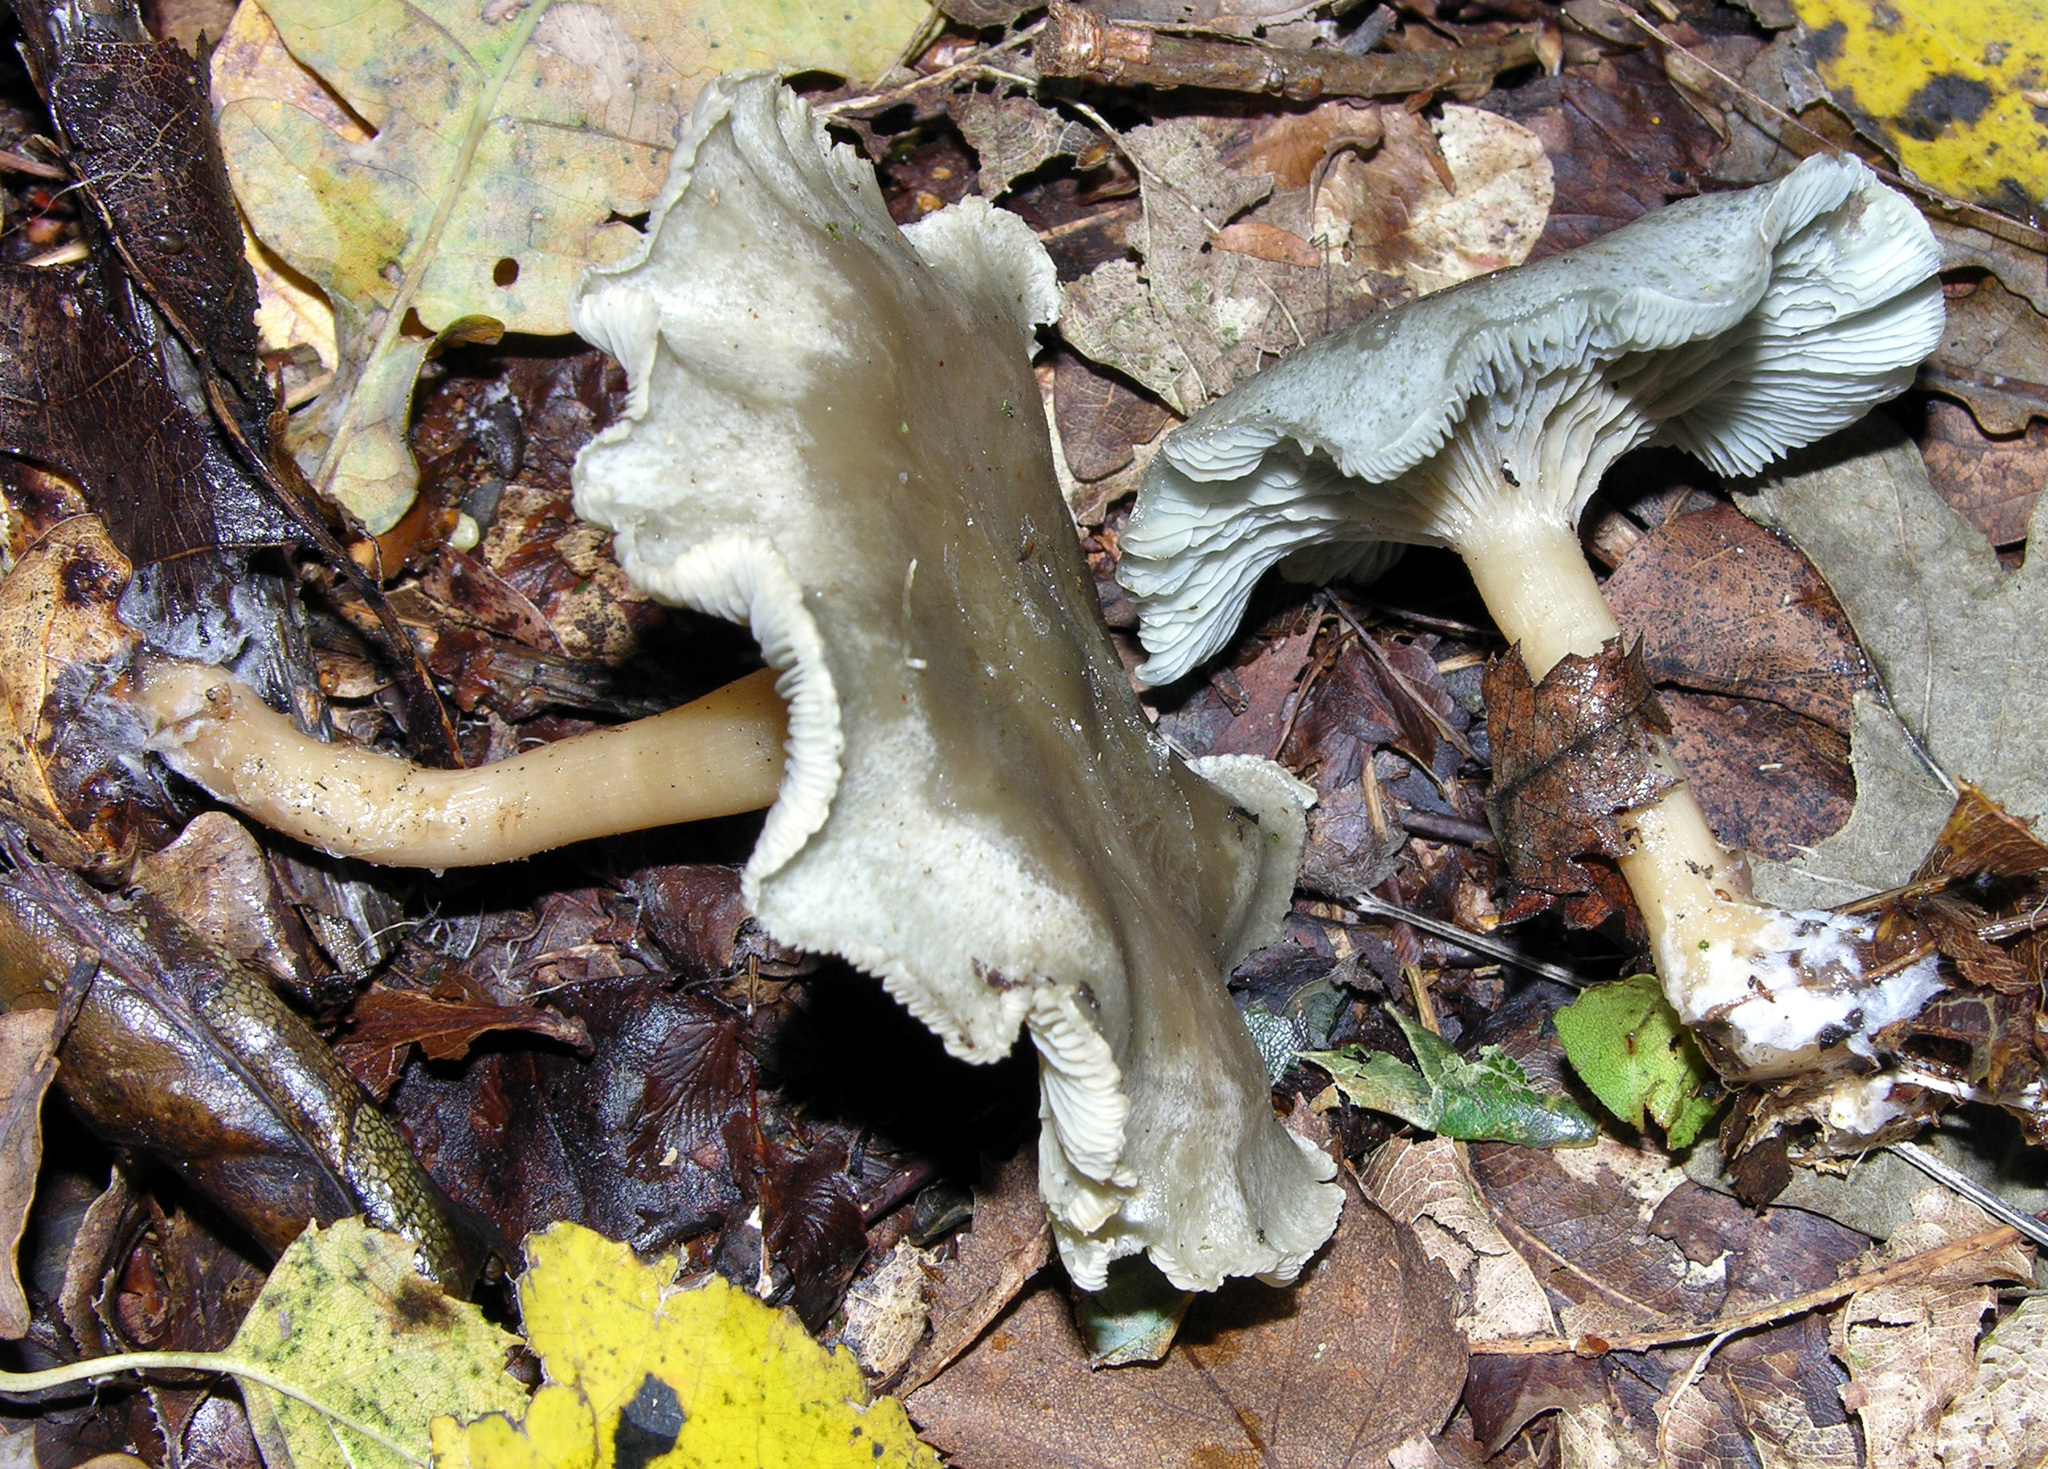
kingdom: Fungi
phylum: Basidiomycota
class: Agaricomycetes
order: Agaricales
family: Tricholomataceae
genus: Collybia
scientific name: Collybia
